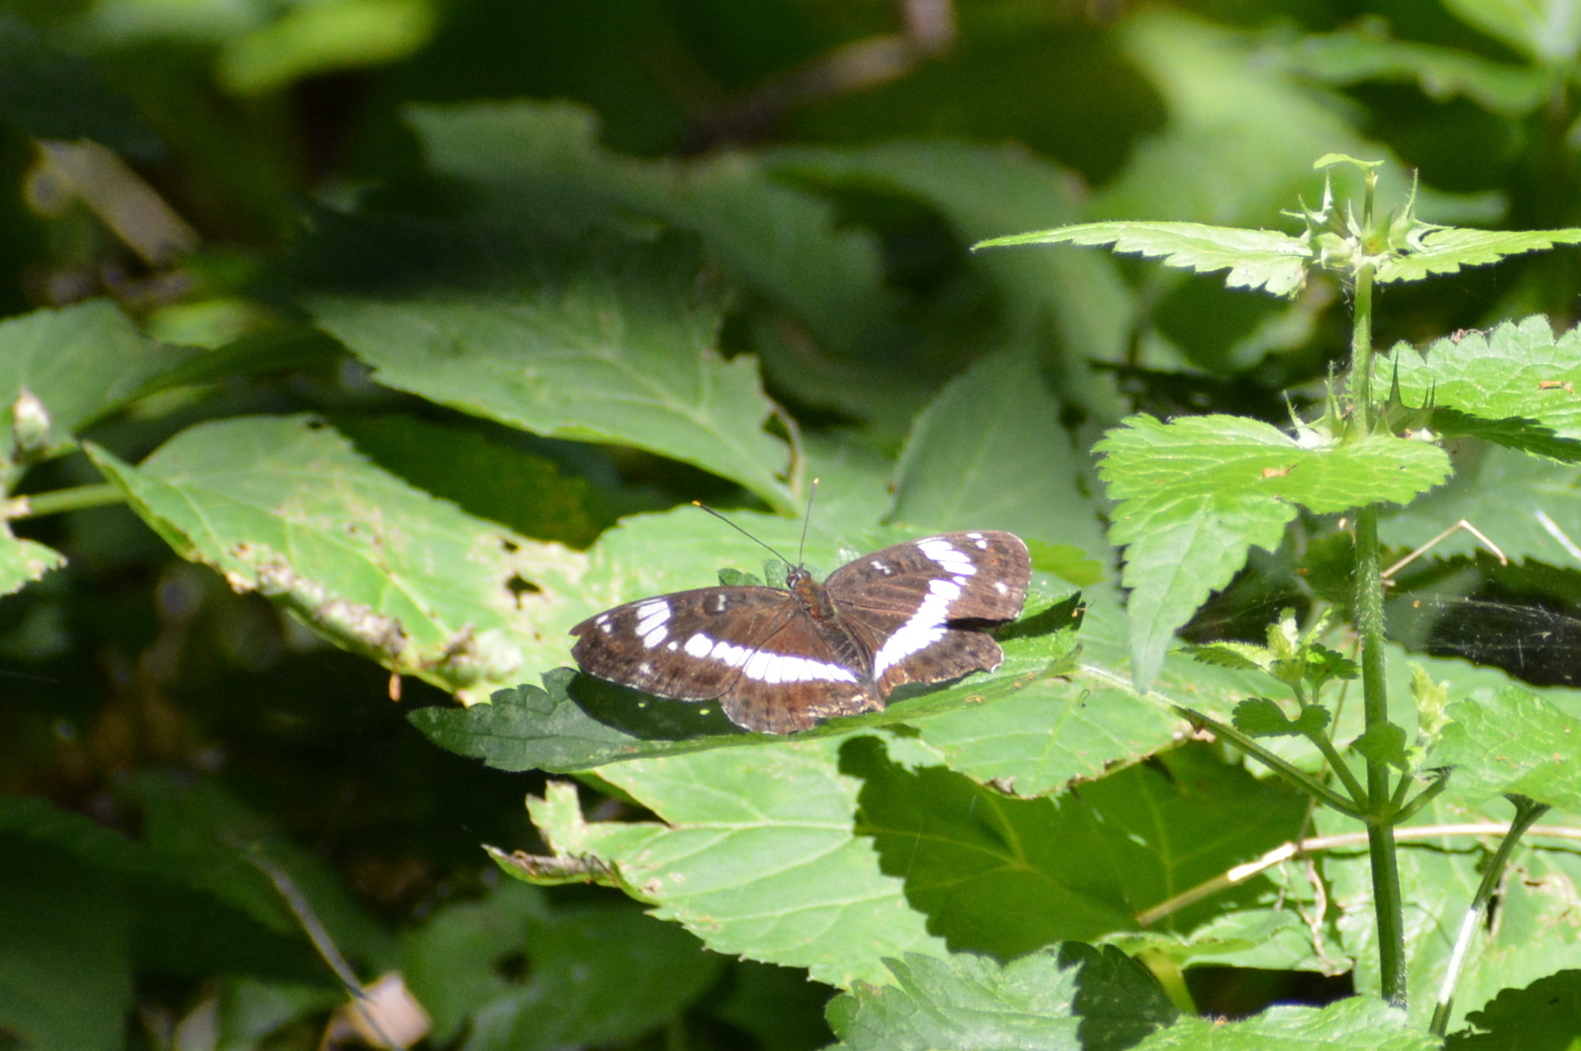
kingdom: Animalia
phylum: Arthropoda
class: Insecta
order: Lepidoptera
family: Nymphalidae
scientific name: Nymphalidae
